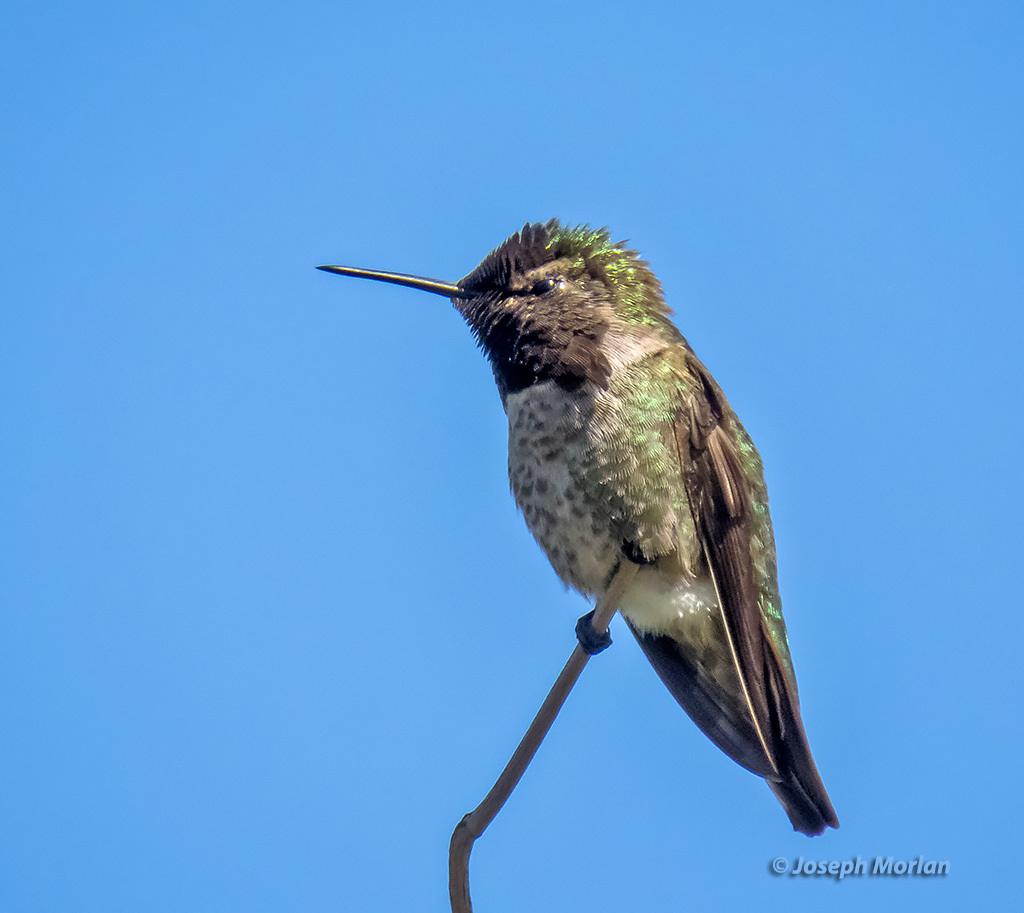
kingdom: Animalia
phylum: Chordata
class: Aves
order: Apodiformes
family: Trochilidae
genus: Calypte
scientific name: Calypte anna
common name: Anna's hummingbird
